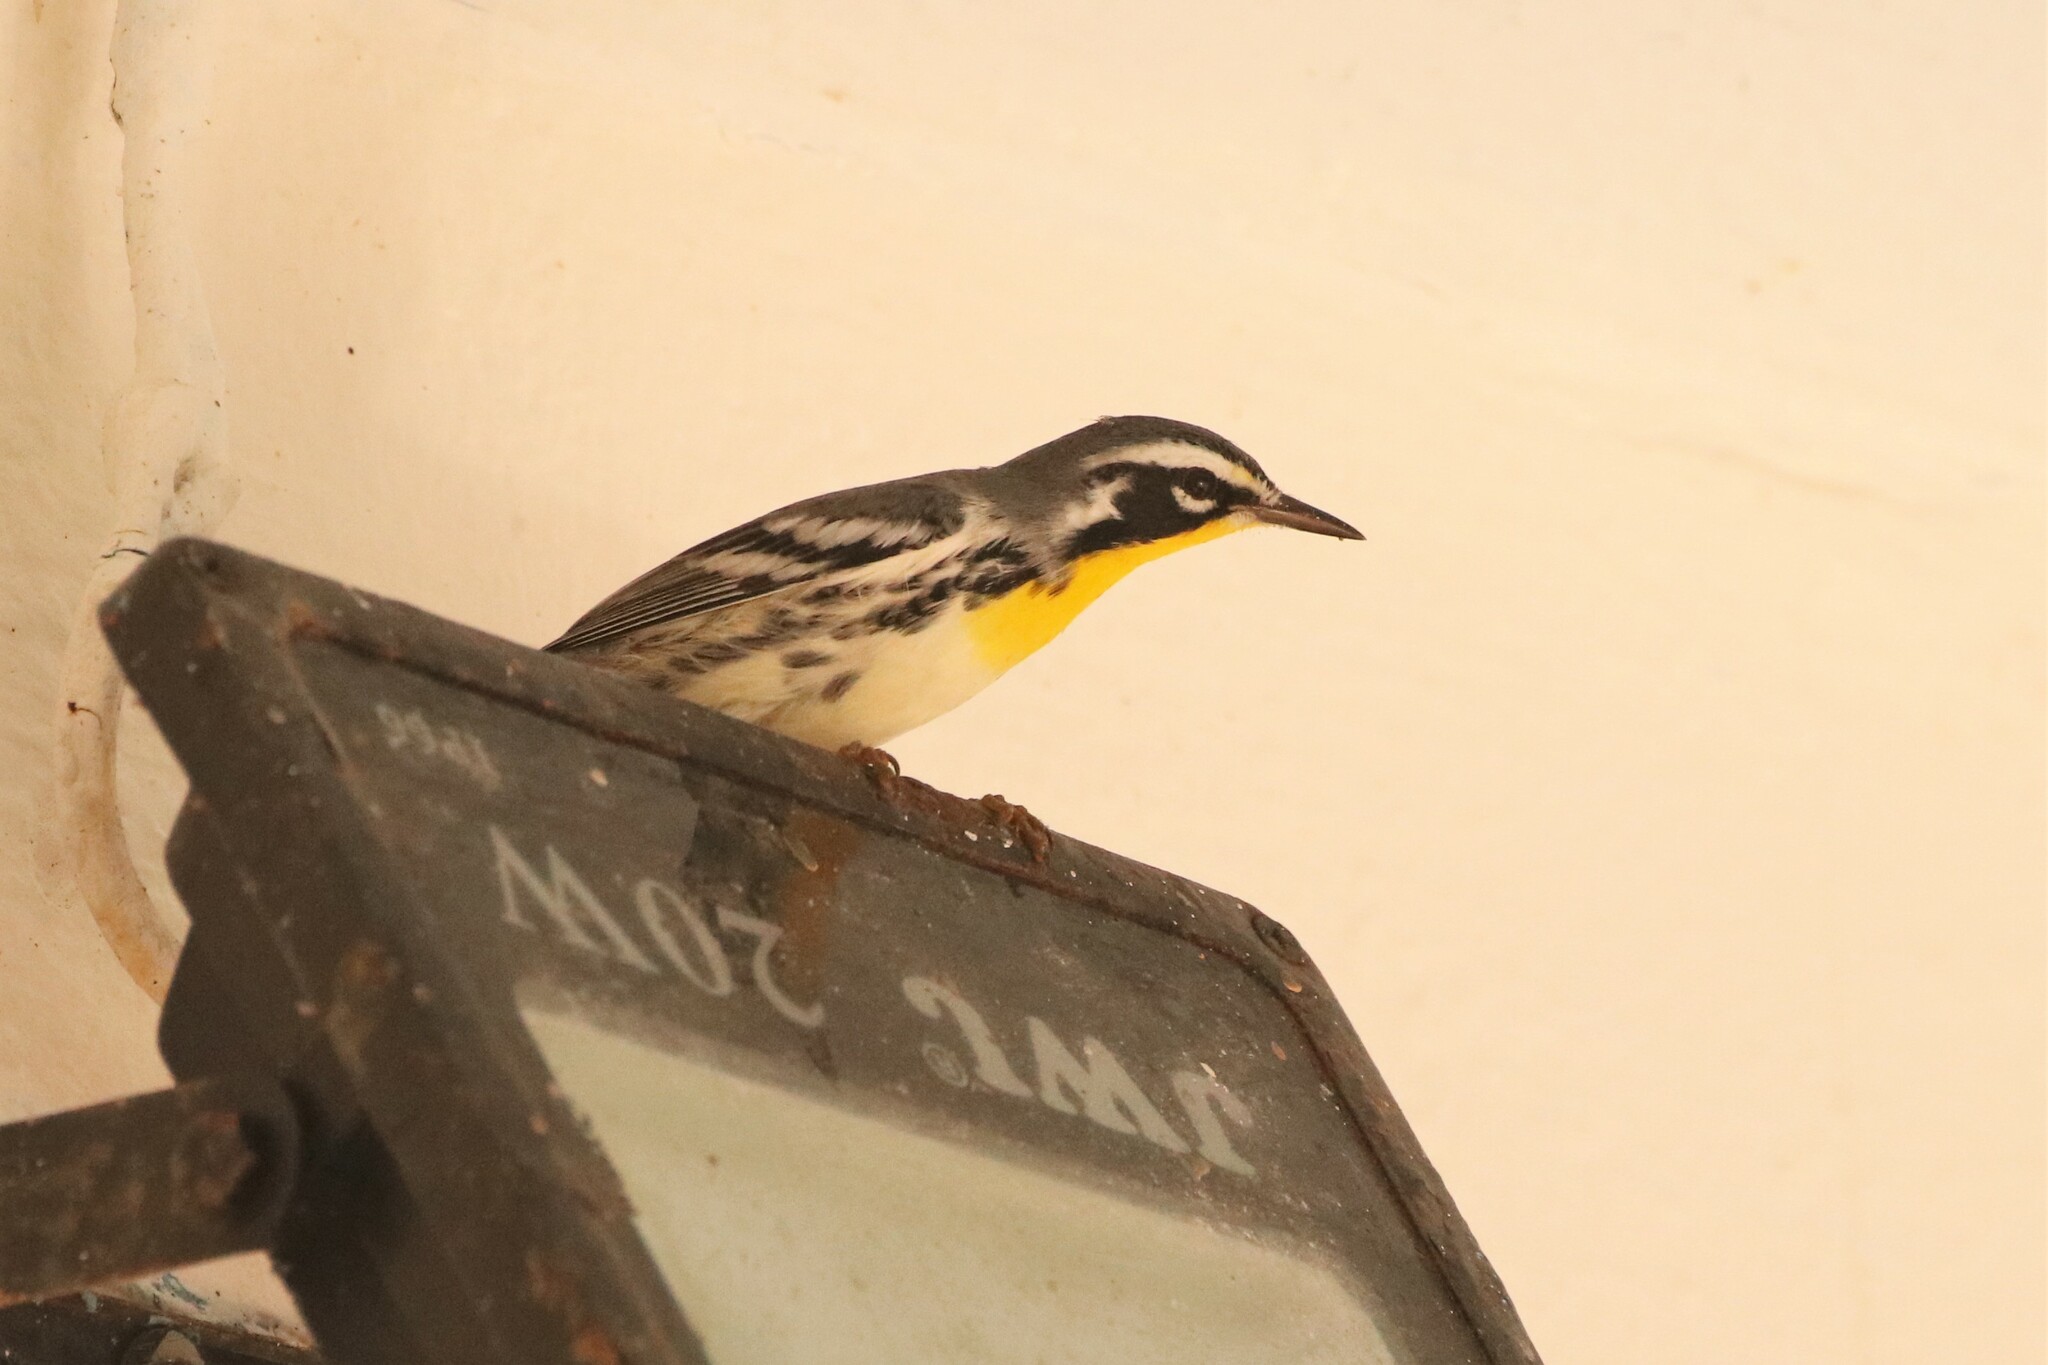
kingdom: Animalia
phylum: Chordata
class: Aves
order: Passeriformes
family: Parulidae
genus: Setophaga
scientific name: Setophaga dominica
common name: Yellow-throated warbler
